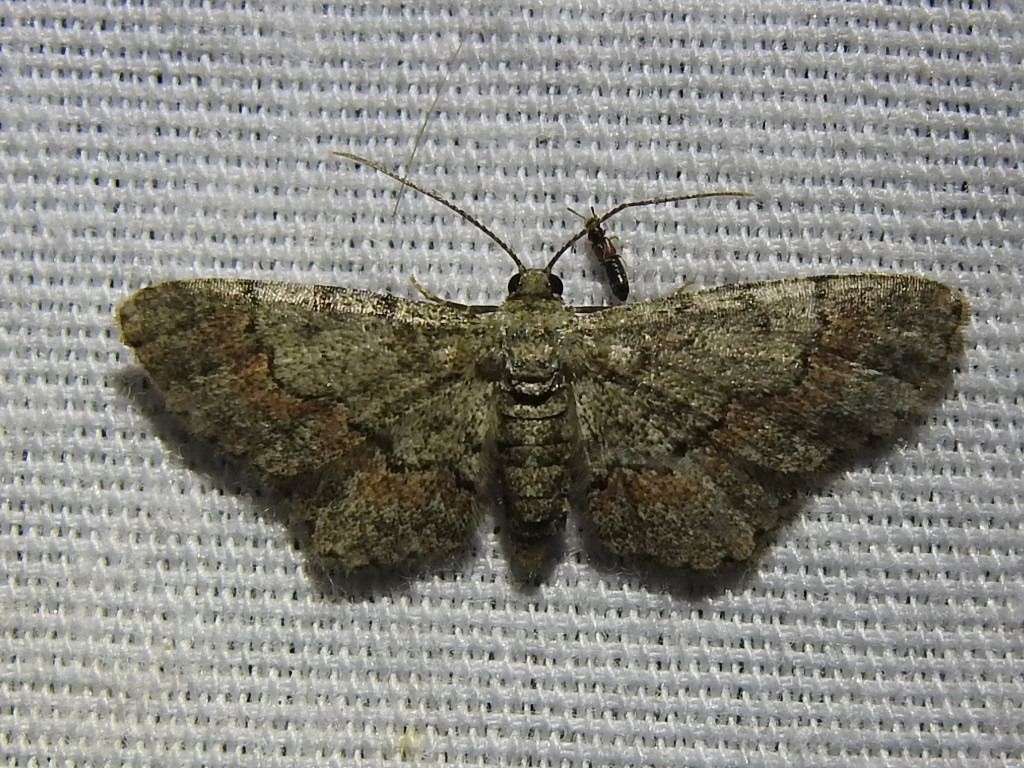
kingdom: Animalia
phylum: Arthropoda
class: Insecta
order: Lepidoptera
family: Geometridae
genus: Glenoides
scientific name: Glenoides texanaria
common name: Texas gray
